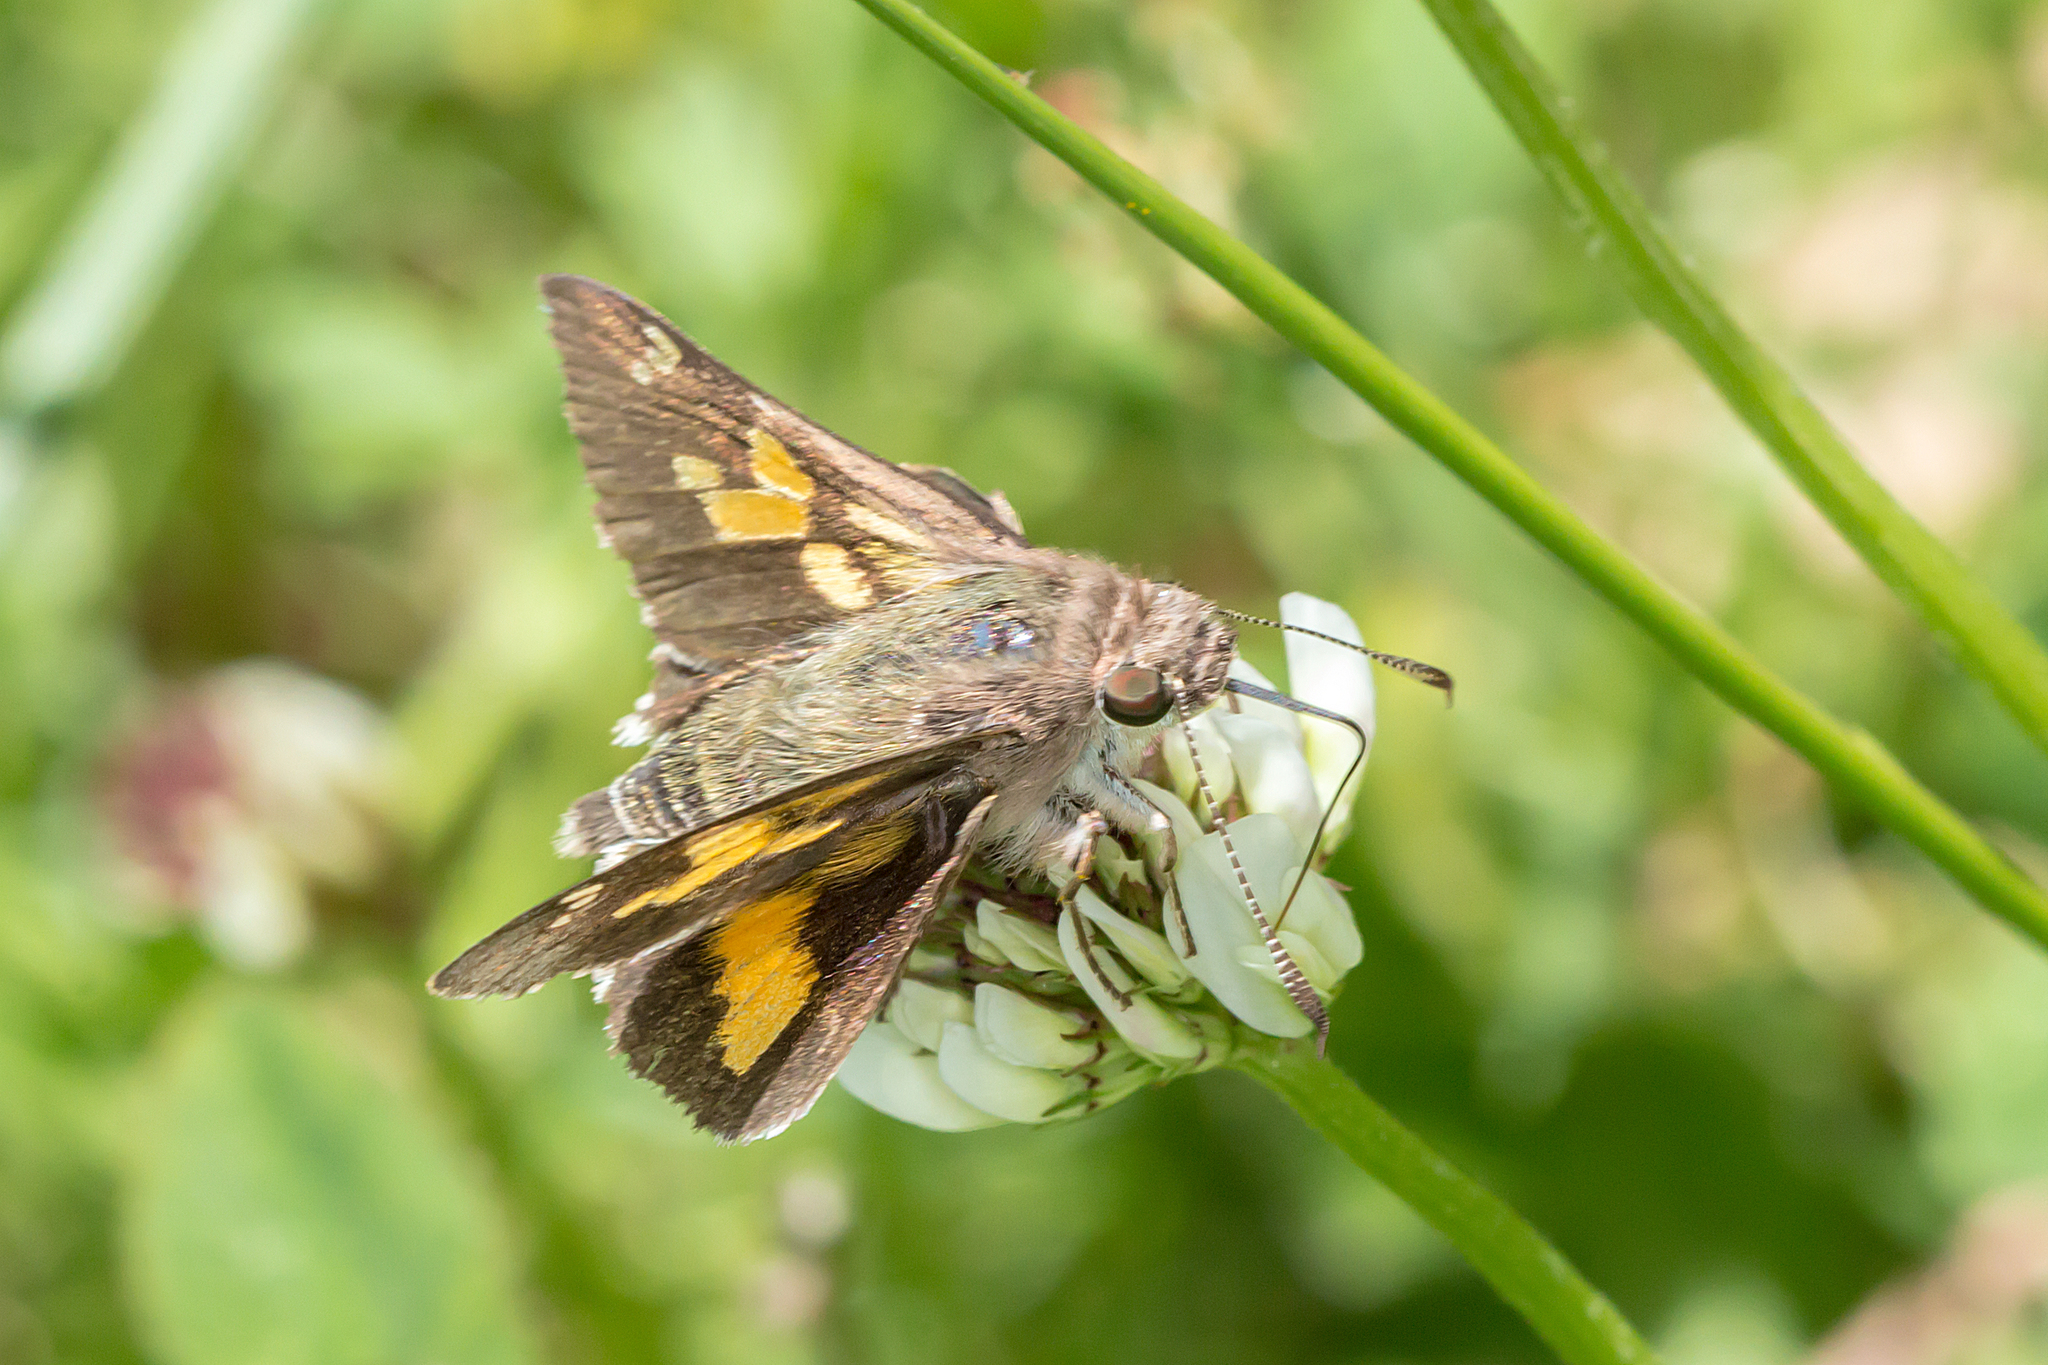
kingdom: Animalia
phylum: Arthropoda
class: Insecta
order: Lepidoptera
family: Hesperiidae
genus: Trapezites
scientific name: Trapezites phigalioides
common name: Montane ochre
